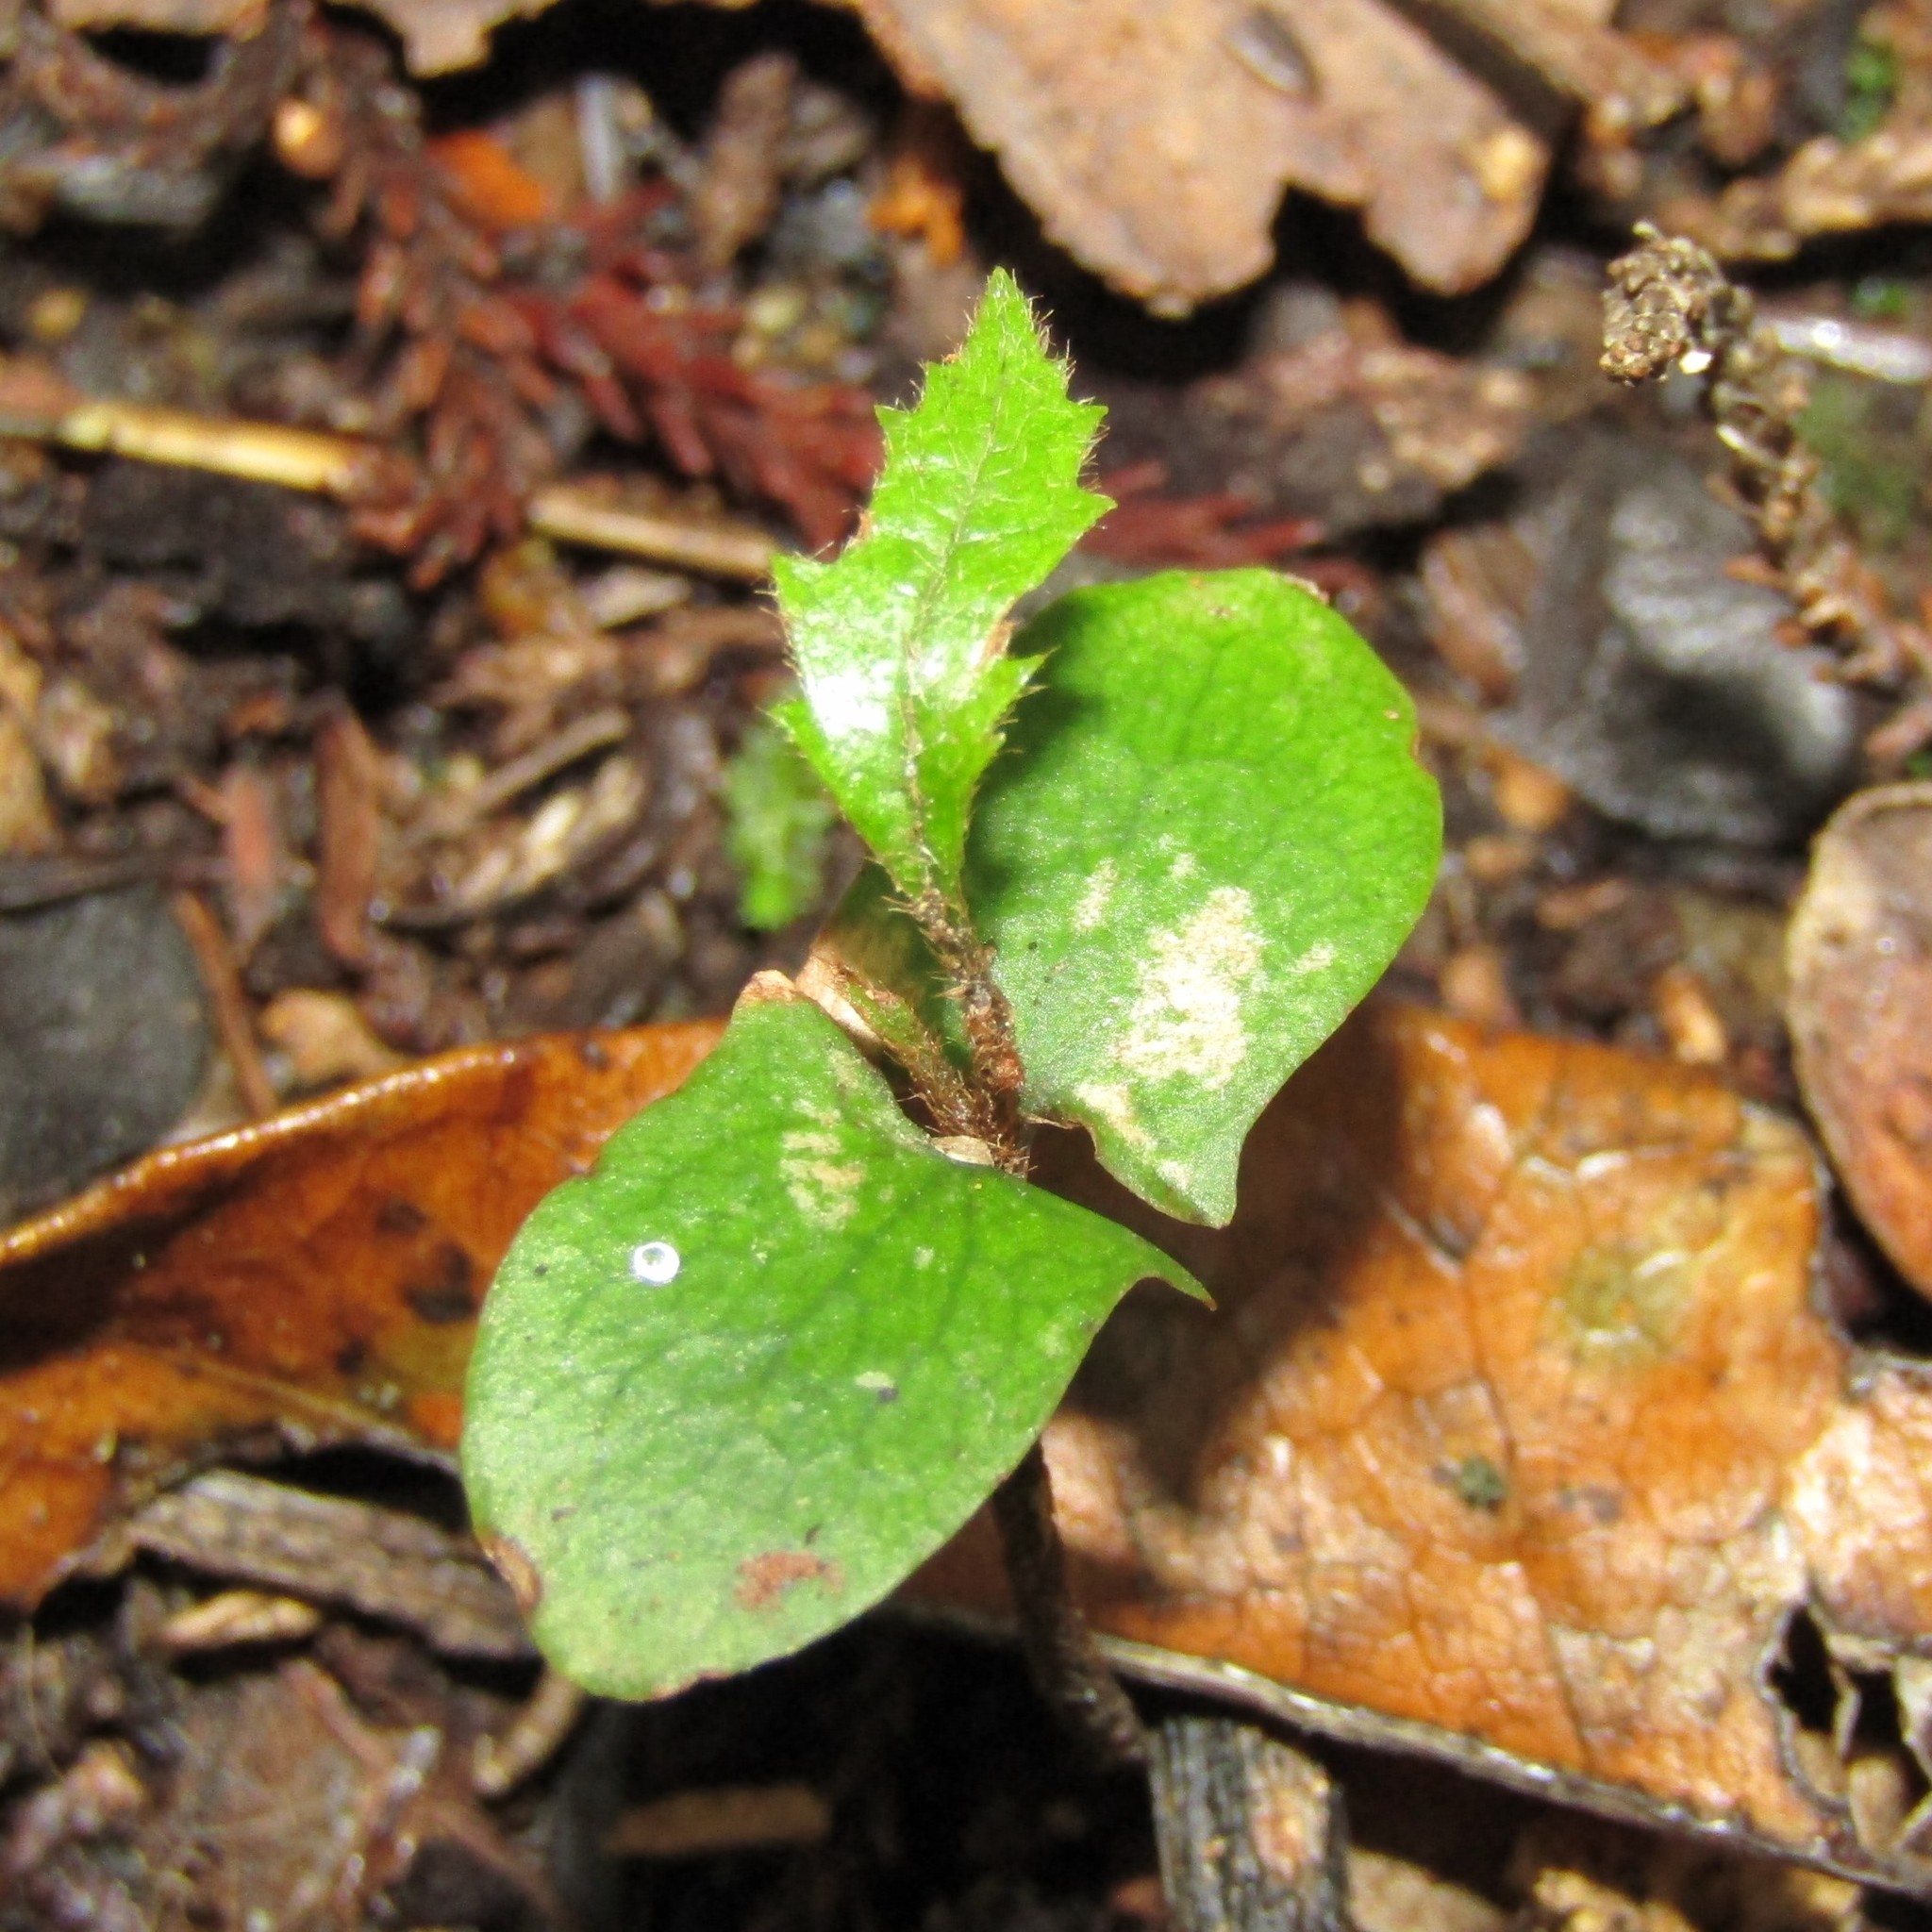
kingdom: Plantae
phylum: Tracheophyta
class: Magnoliopsida
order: Proteales
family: Proteaceae
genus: Knightia
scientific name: Knightia excelsa
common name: New zealand-honeysuckle
